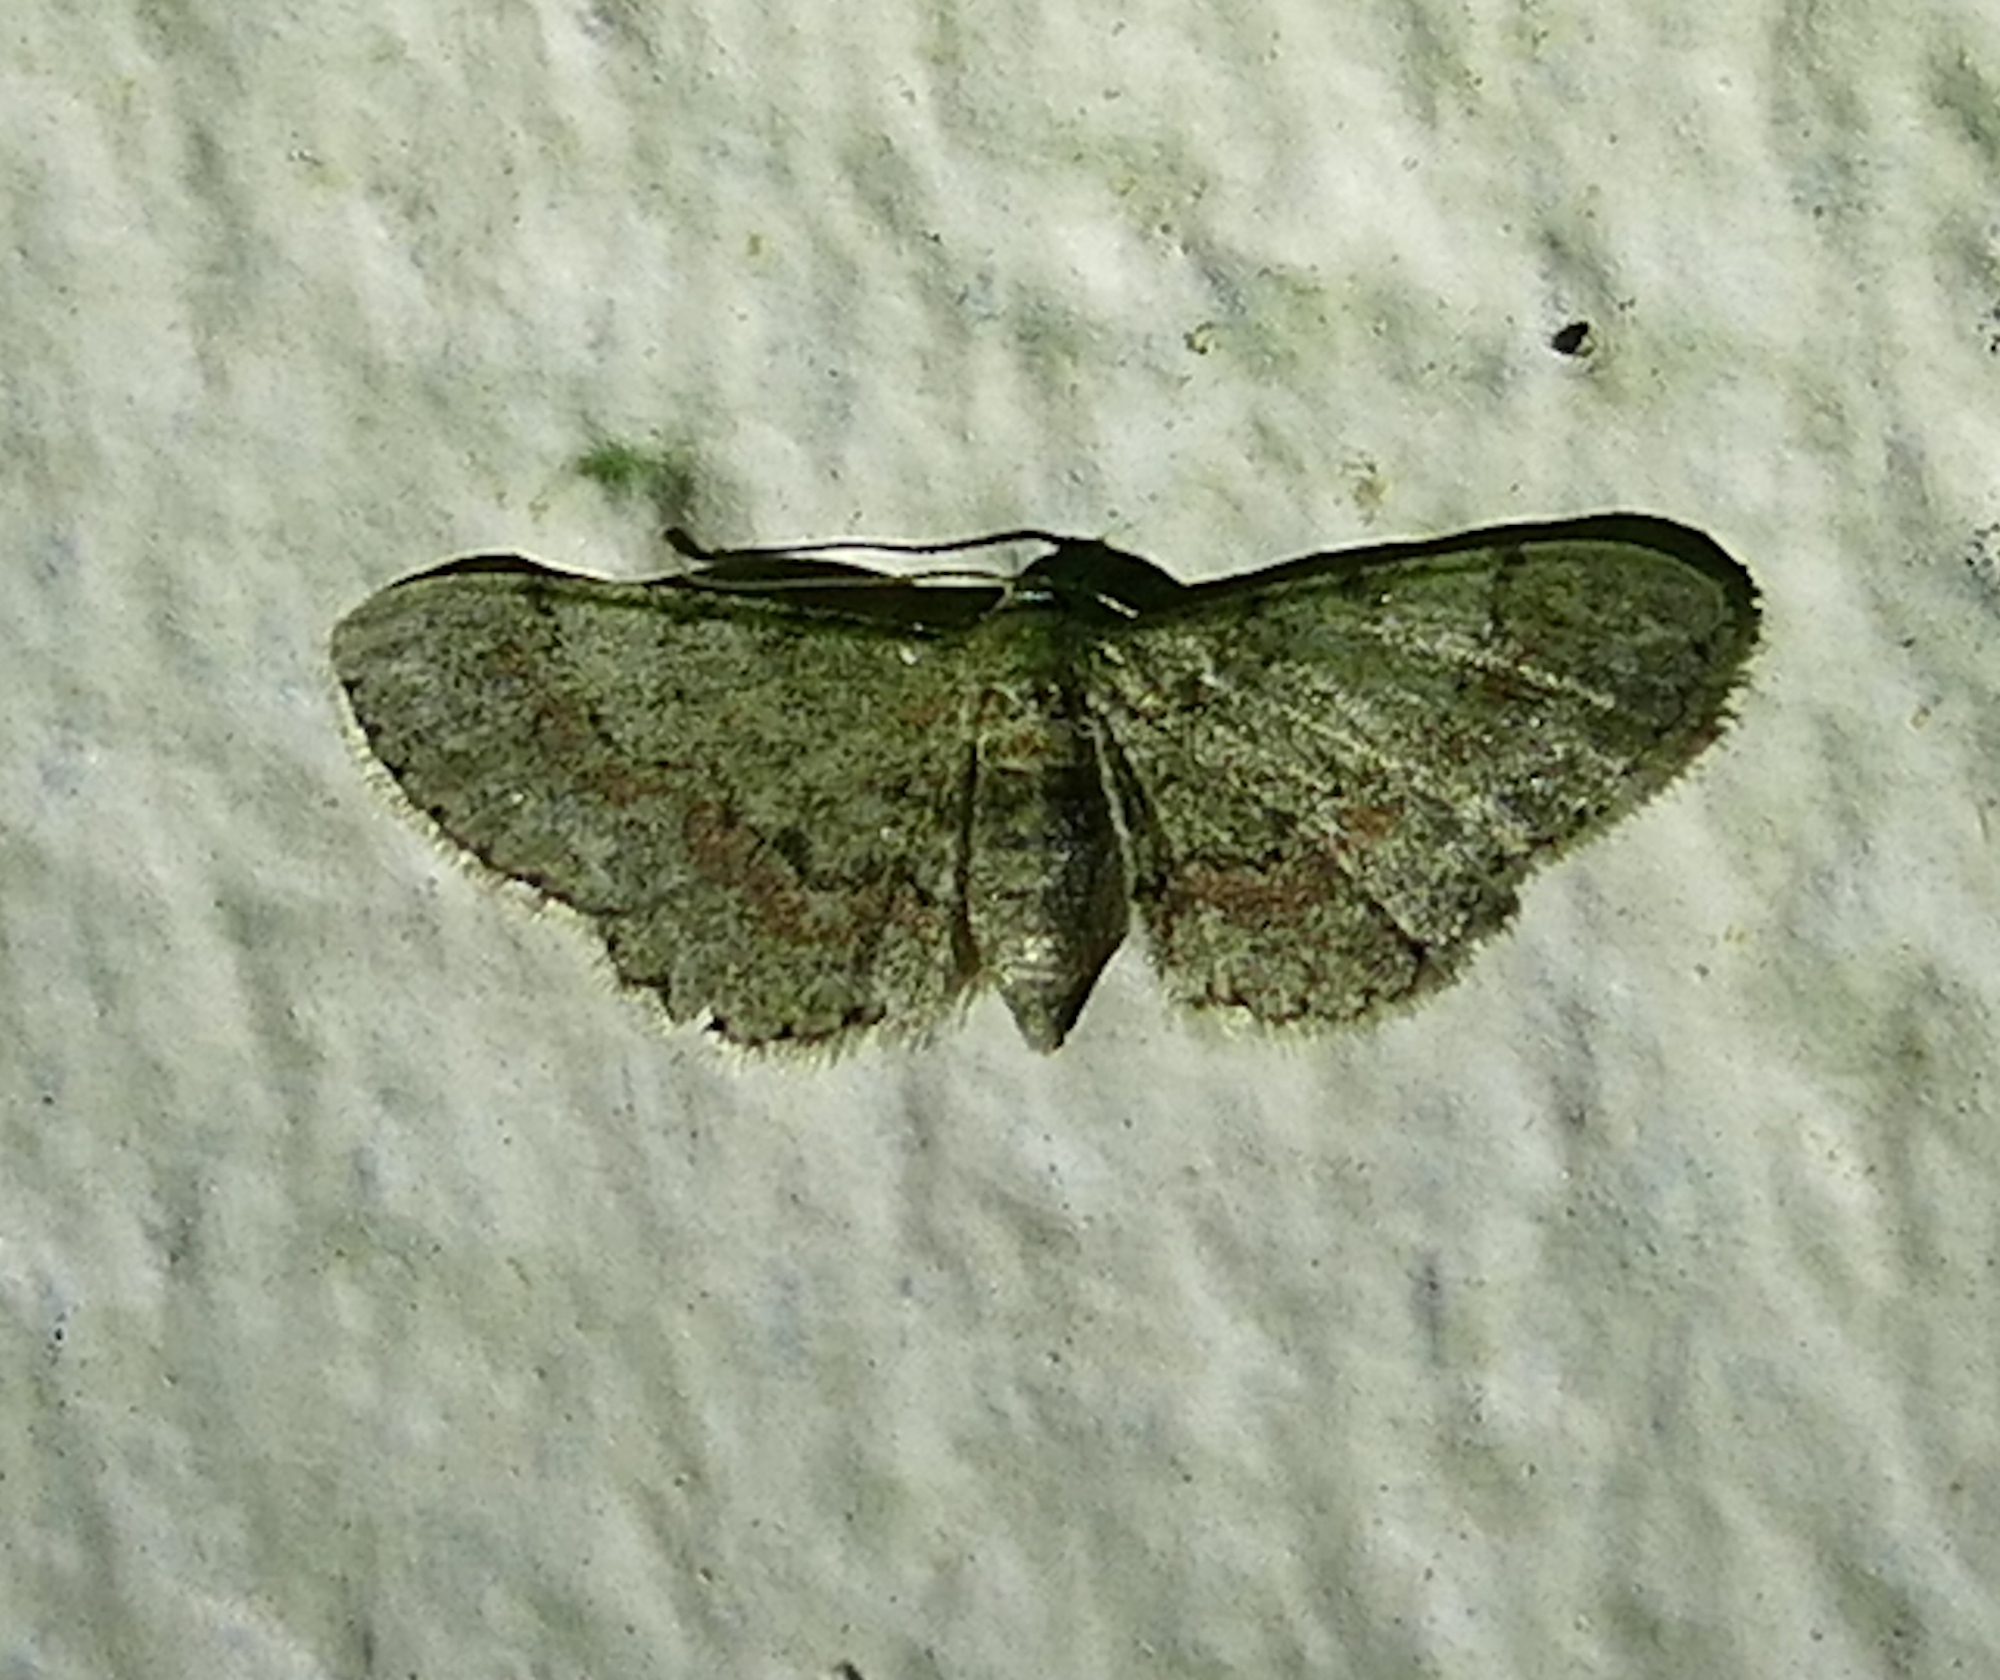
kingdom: Animalia
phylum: Arthropoda
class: Insecta
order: Lepidoptera
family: Geometridae
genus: Glenoides
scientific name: Glenoides texanaria
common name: Texas gray
